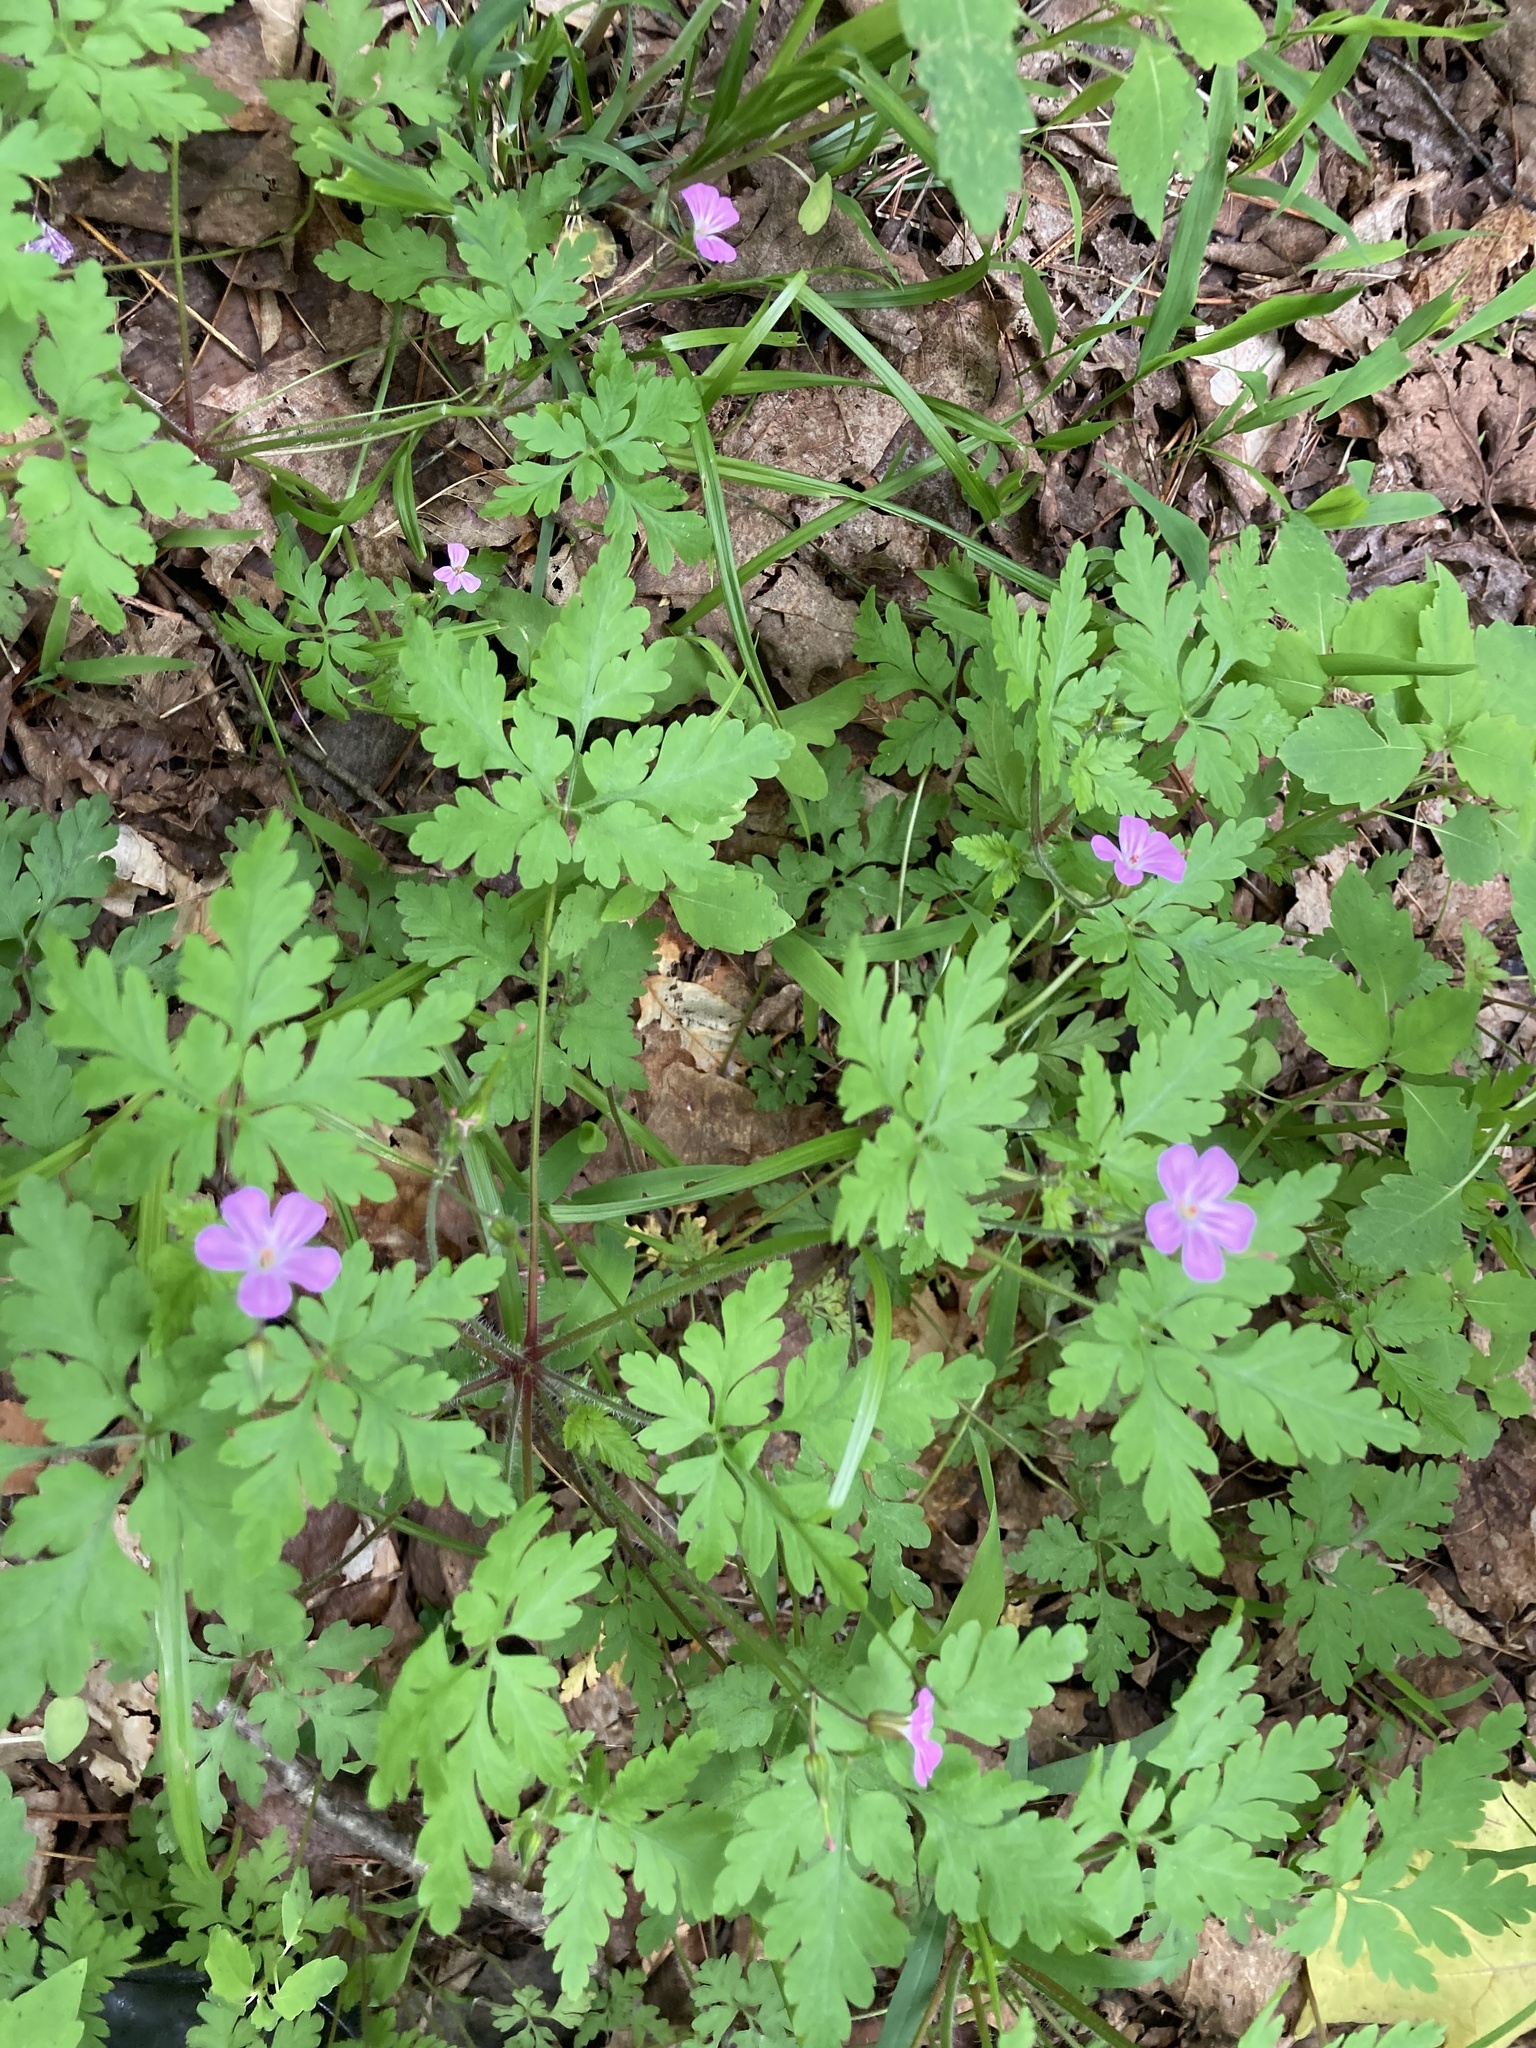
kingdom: Plantae
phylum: Tracheophyta
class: Magnoliopsida
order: Geraniales
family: Geraniaceae
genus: Geranium
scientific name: Geranium robertianum
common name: Herb-robert
